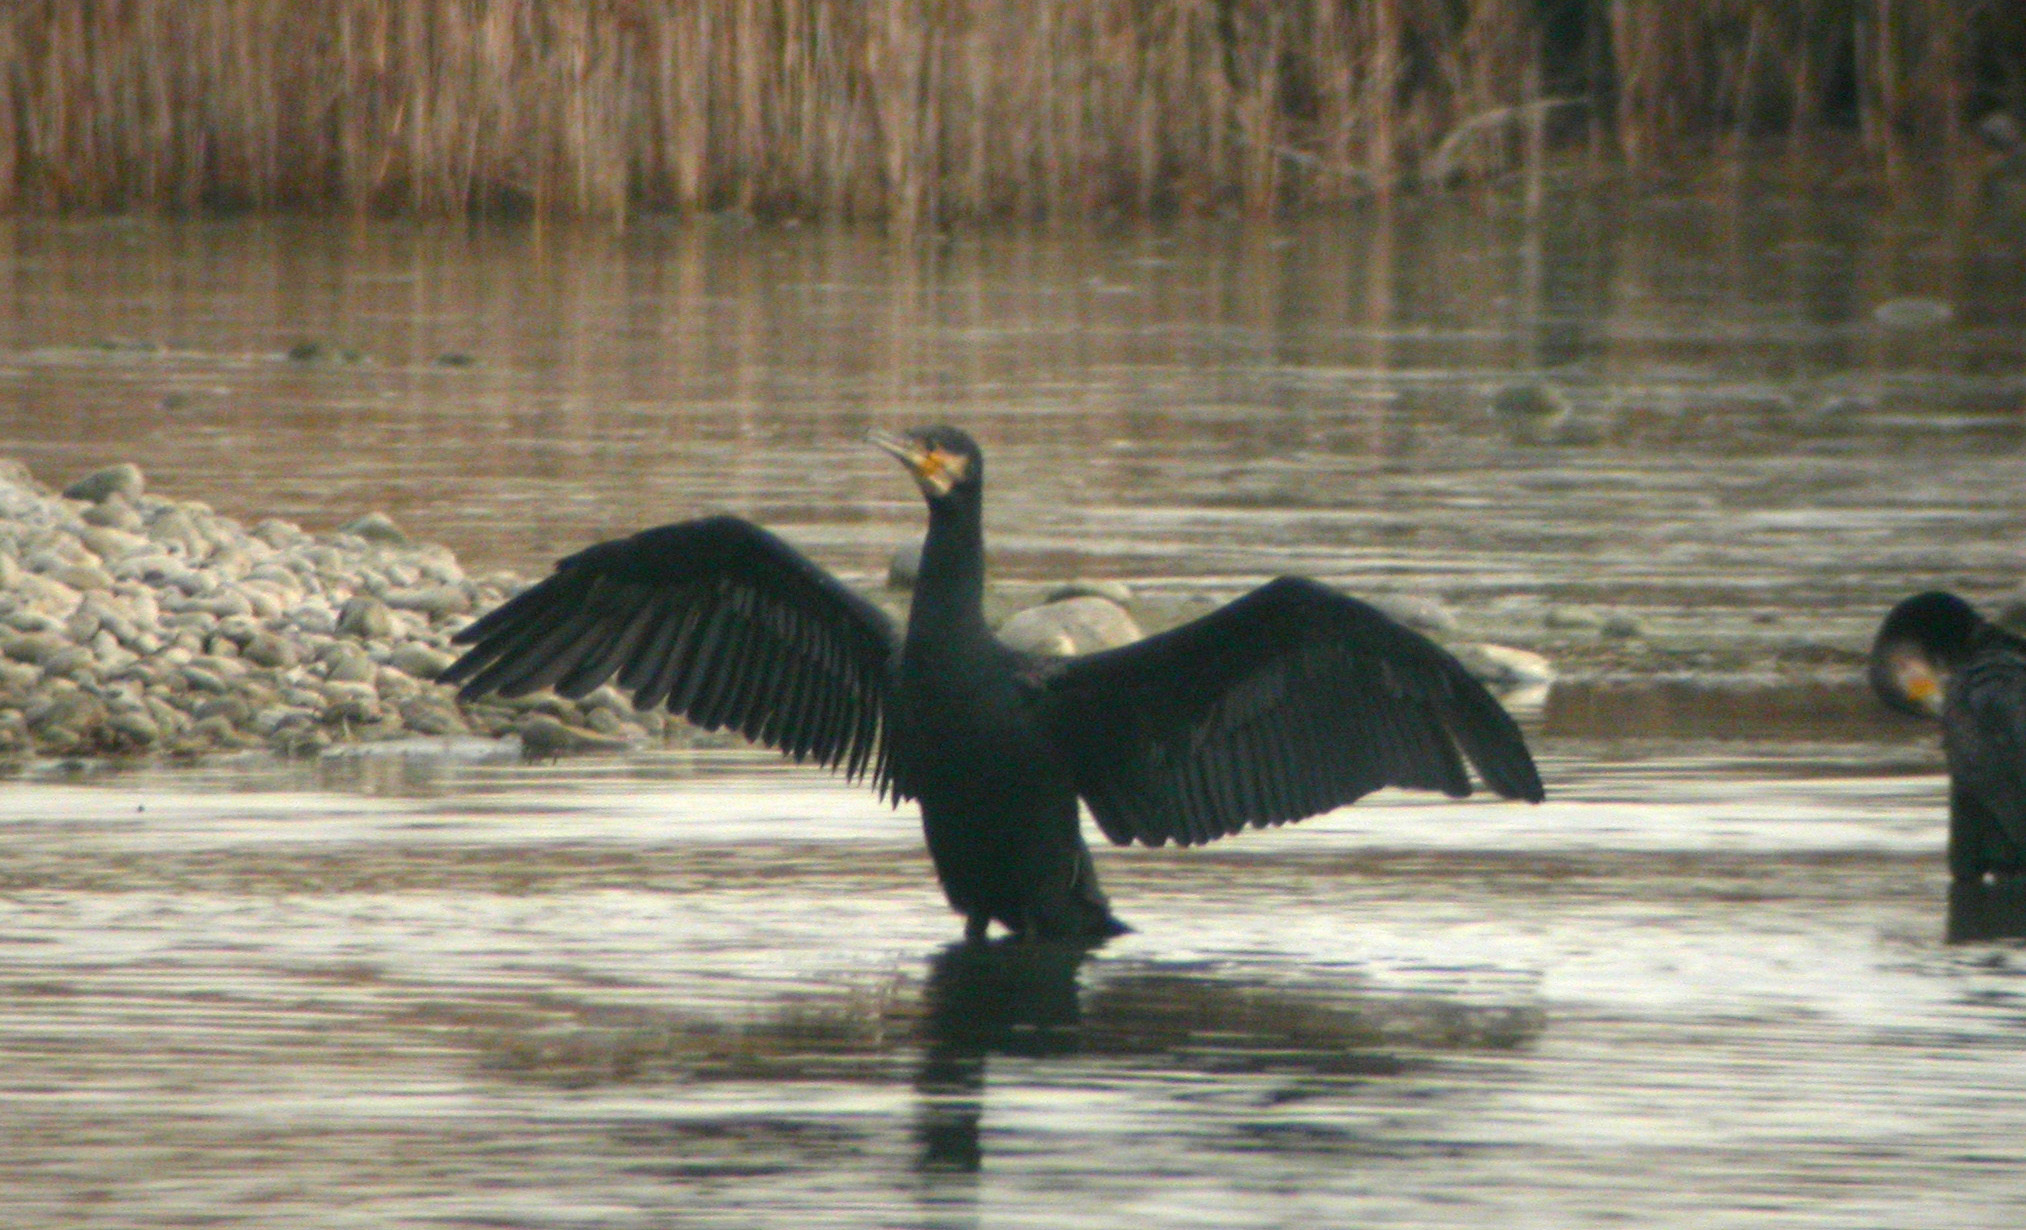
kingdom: Animalia
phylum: Chordata
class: Aves
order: Suliformes
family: Phalacrocoracidae
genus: Phalacrocorax
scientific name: Phalacrocorax carbo
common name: Great cormorant
